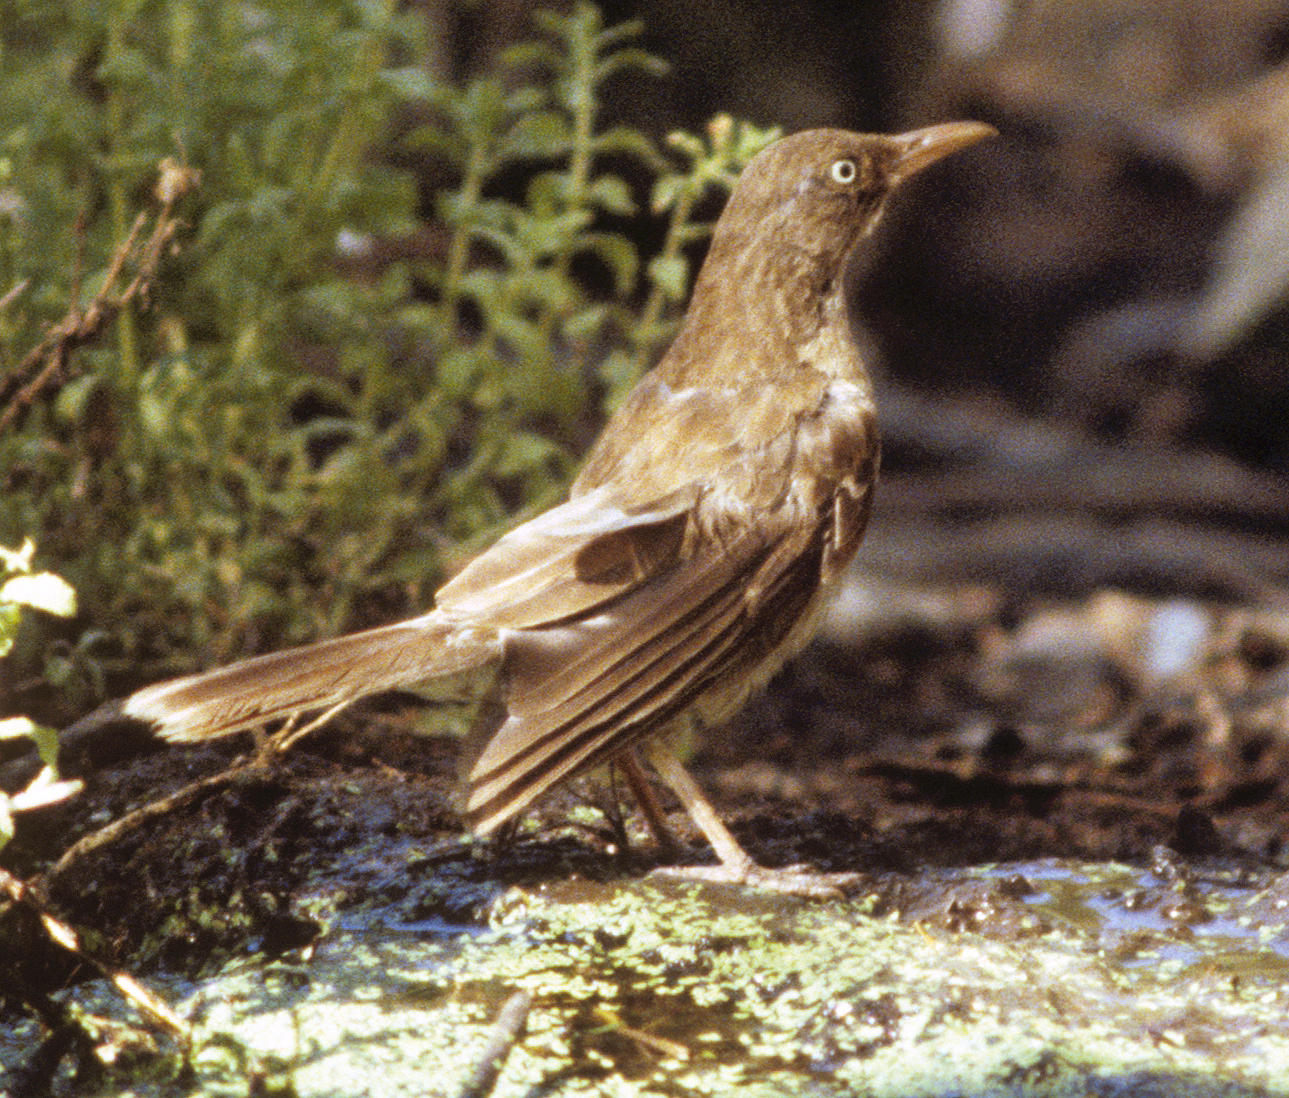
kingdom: Animalia
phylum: Chordata
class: Aves
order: Passeriformes
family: Mimidae
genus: Margarops
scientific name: Margarops fuscatus
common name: Pearly-eyed thrasher
